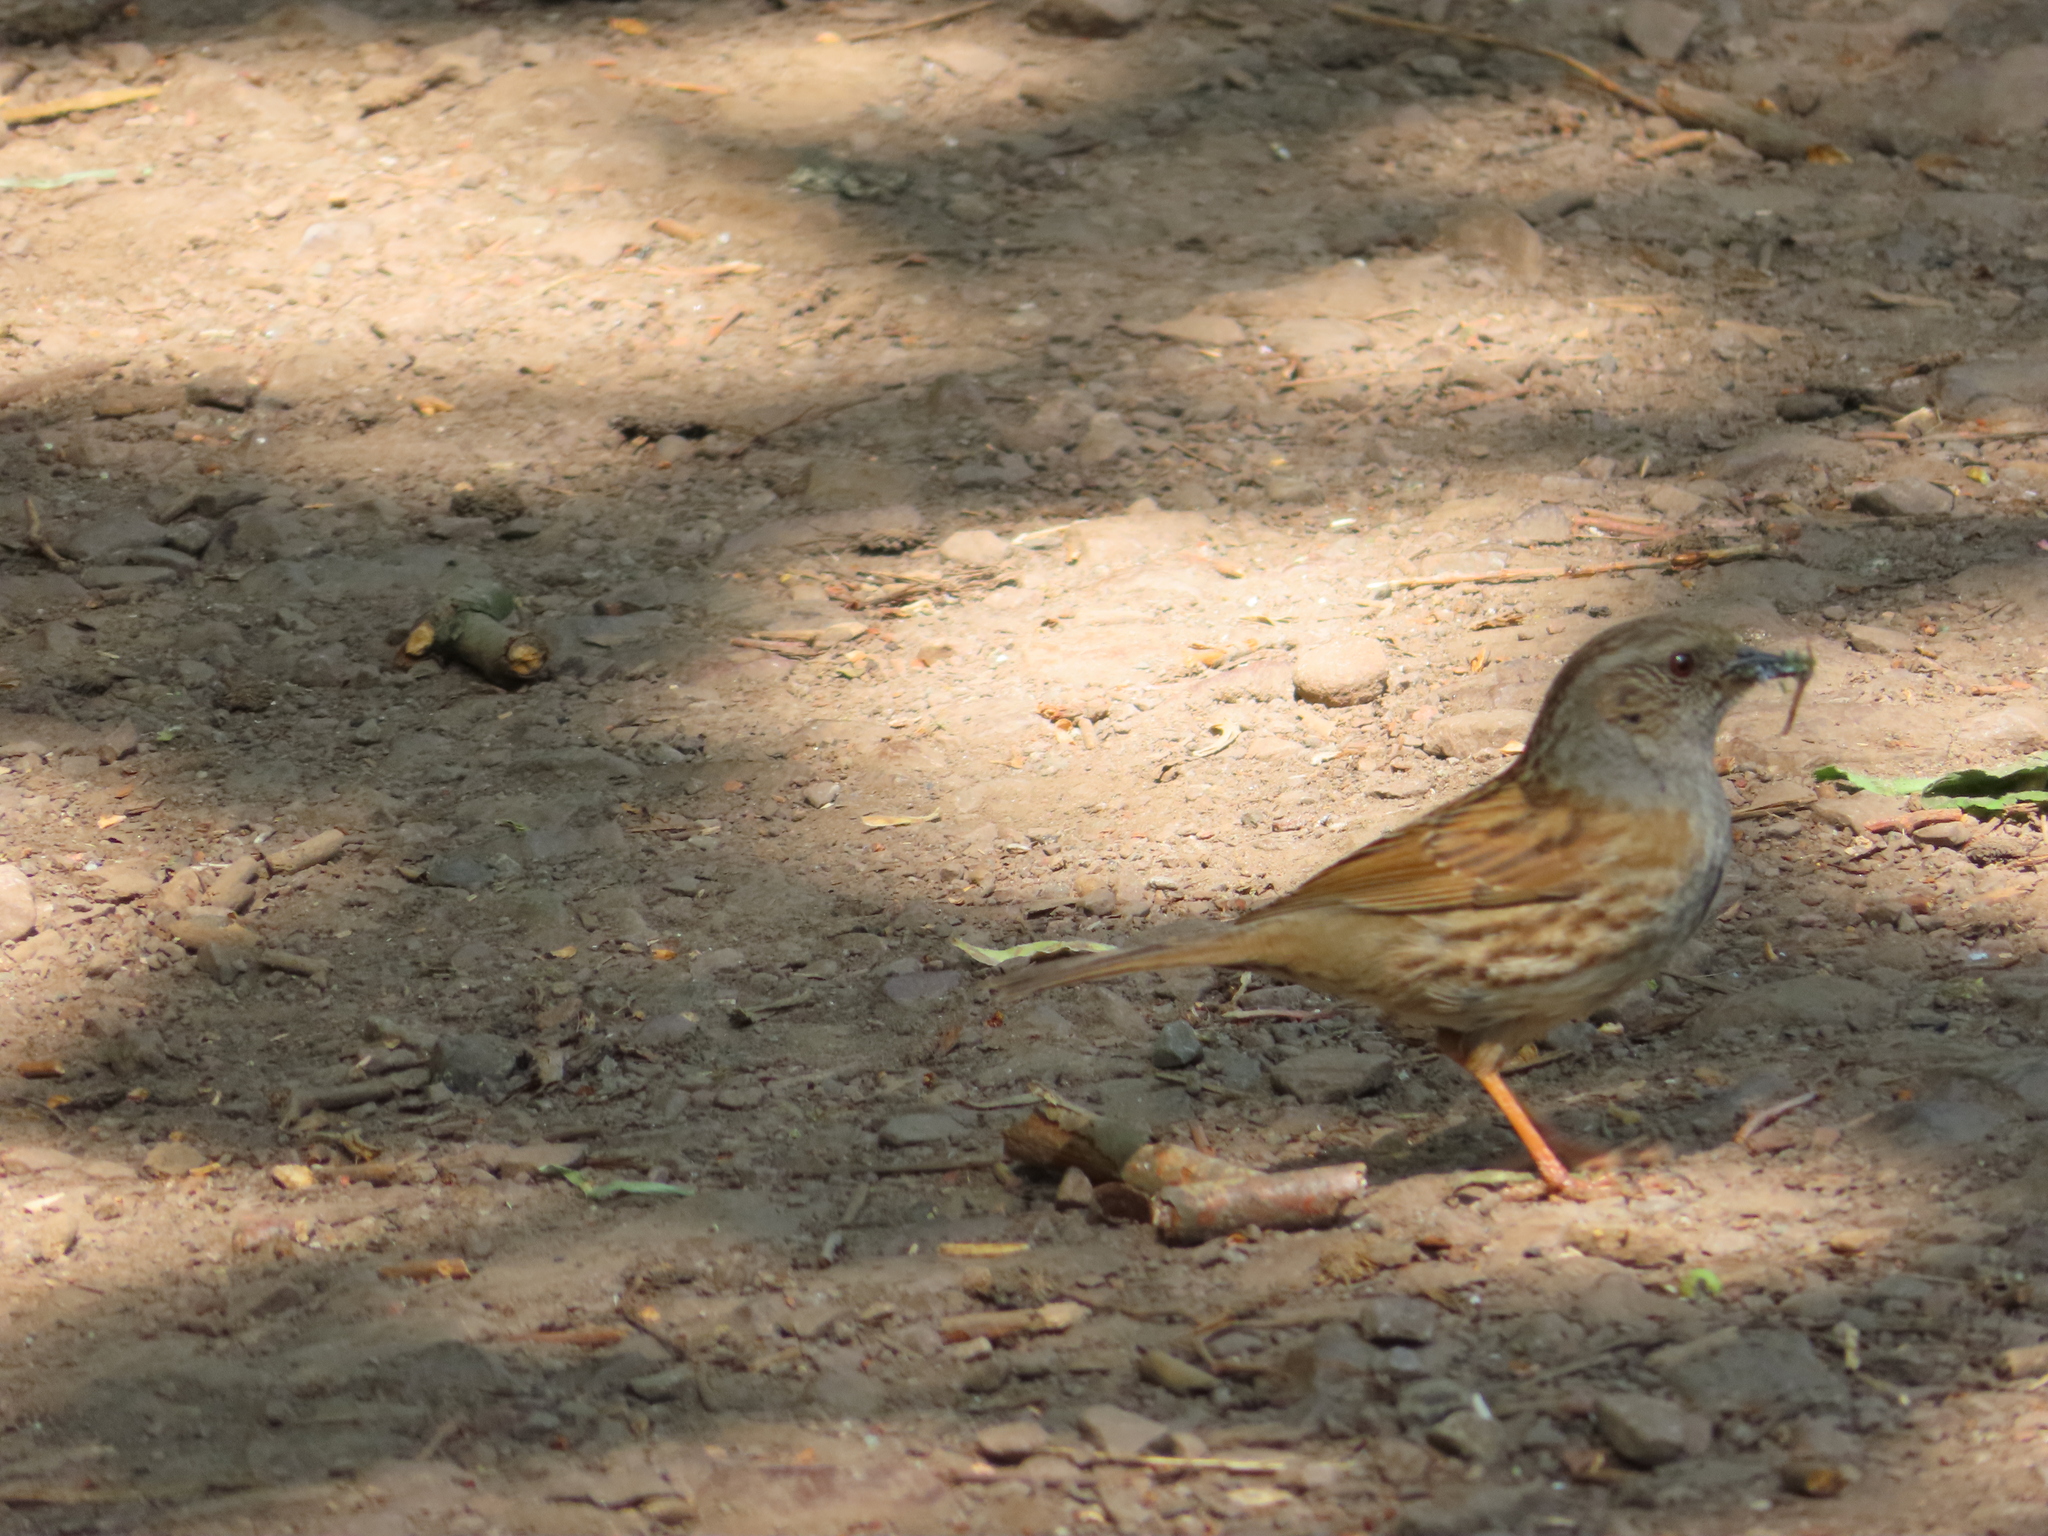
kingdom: Animalia
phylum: Chordata
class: Aves
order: Passeriformes
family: Prunellidae
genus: Prunella
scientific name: Prunella modularis
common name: Dunnock
